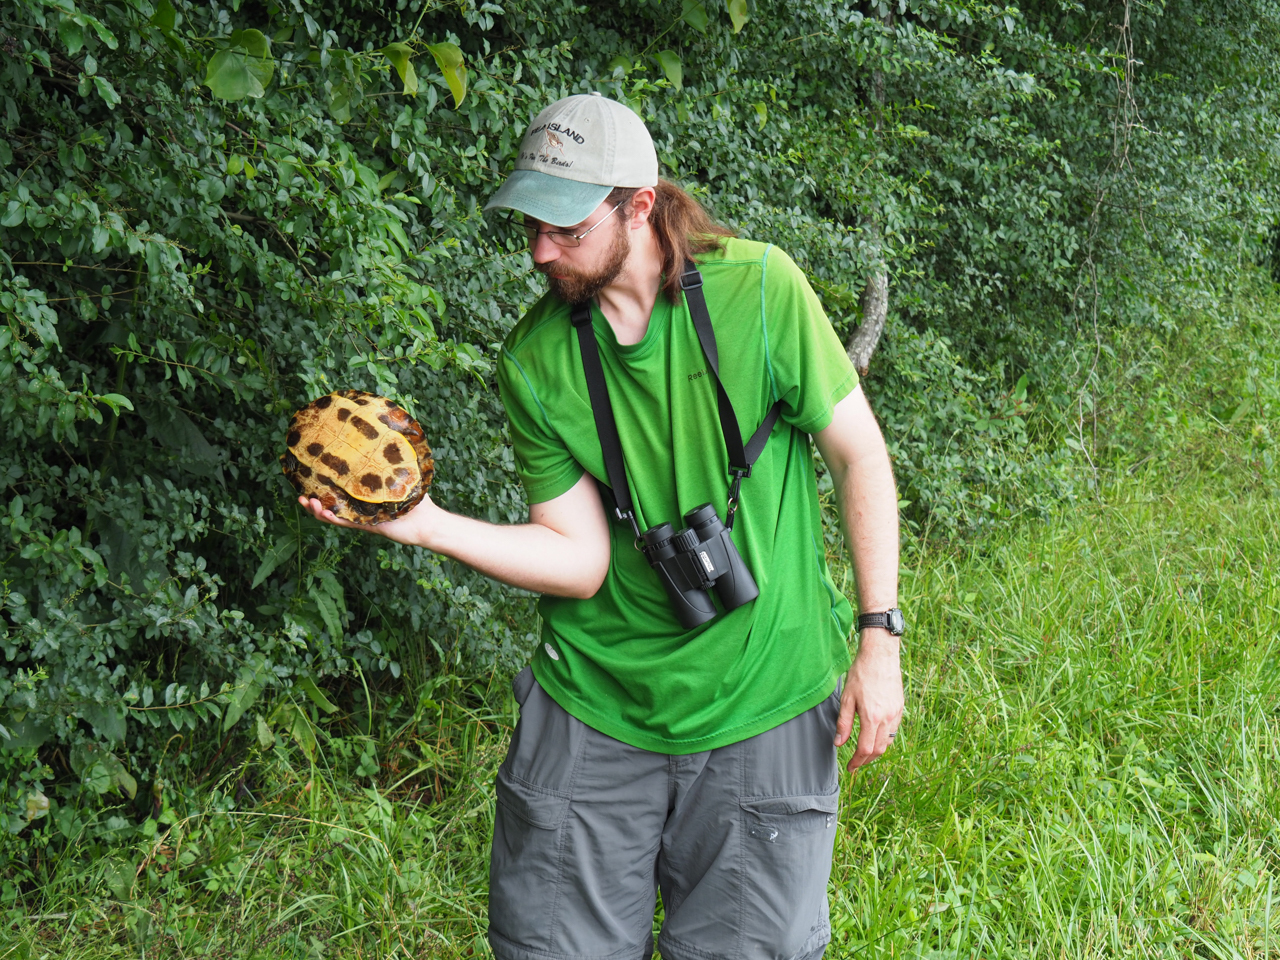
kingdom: Animalia
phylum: Chordata
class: Testudines
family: Emydidae
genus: Trachemys
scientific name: Trachemys scripta
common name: Slider
